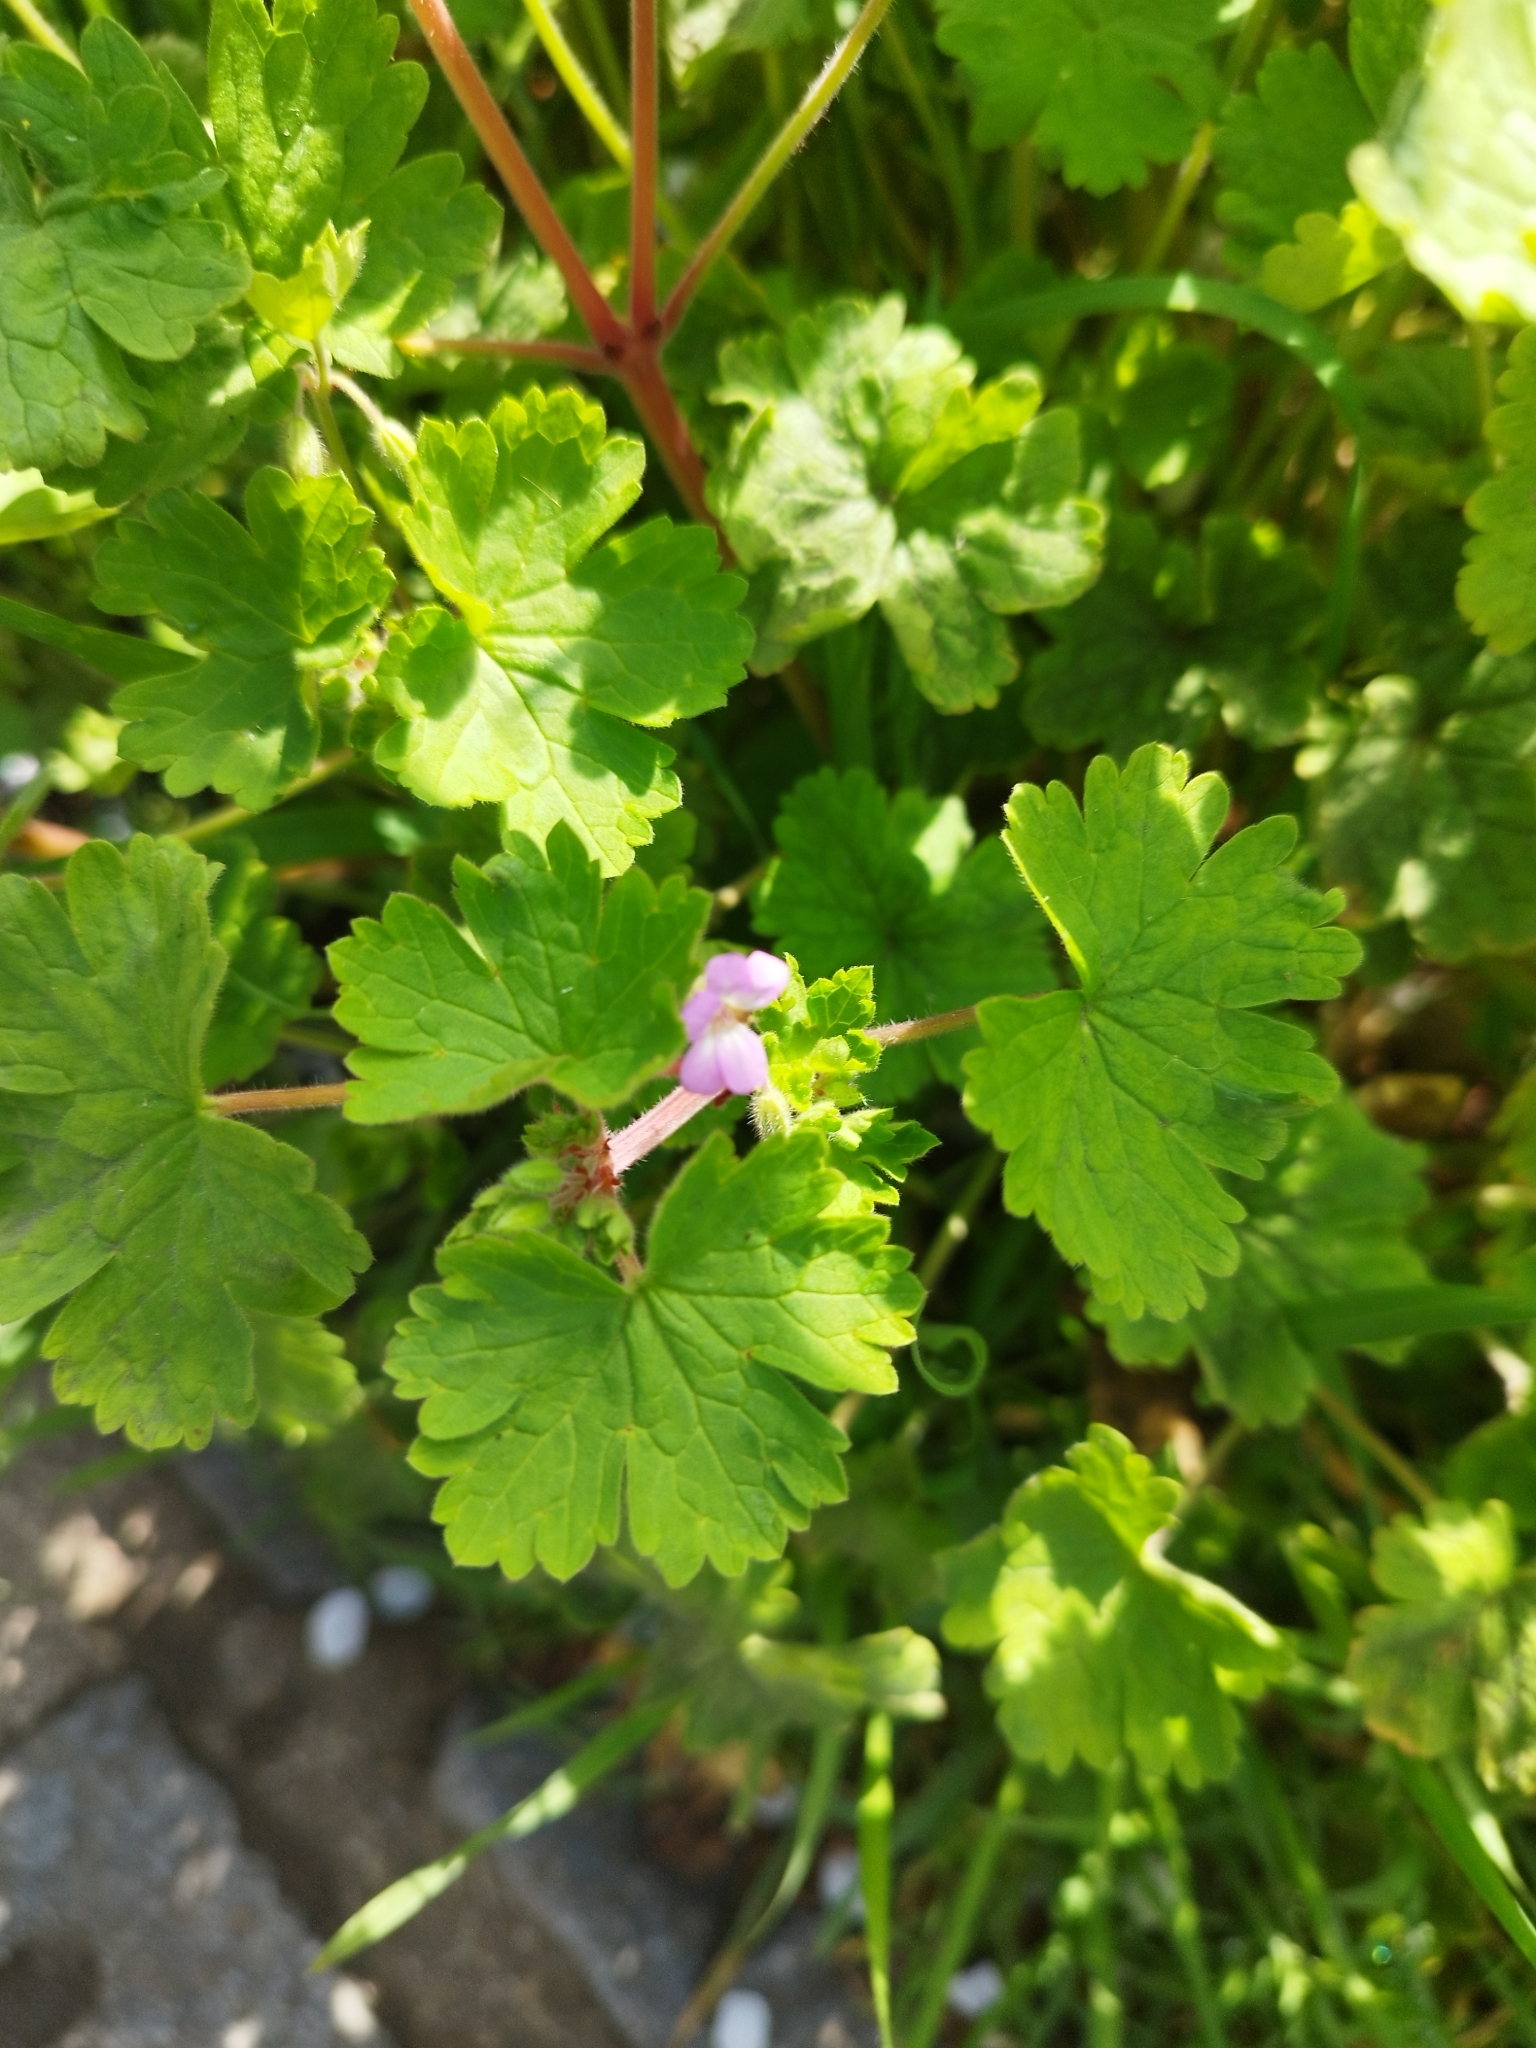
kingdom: Plantae
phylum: Tracheophyta
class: Magnoliopsida
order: Geraniales
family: Geraniaceae
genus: Geranium
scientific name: Geranium rotundifolium
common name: Round-leaved crane's-bill
